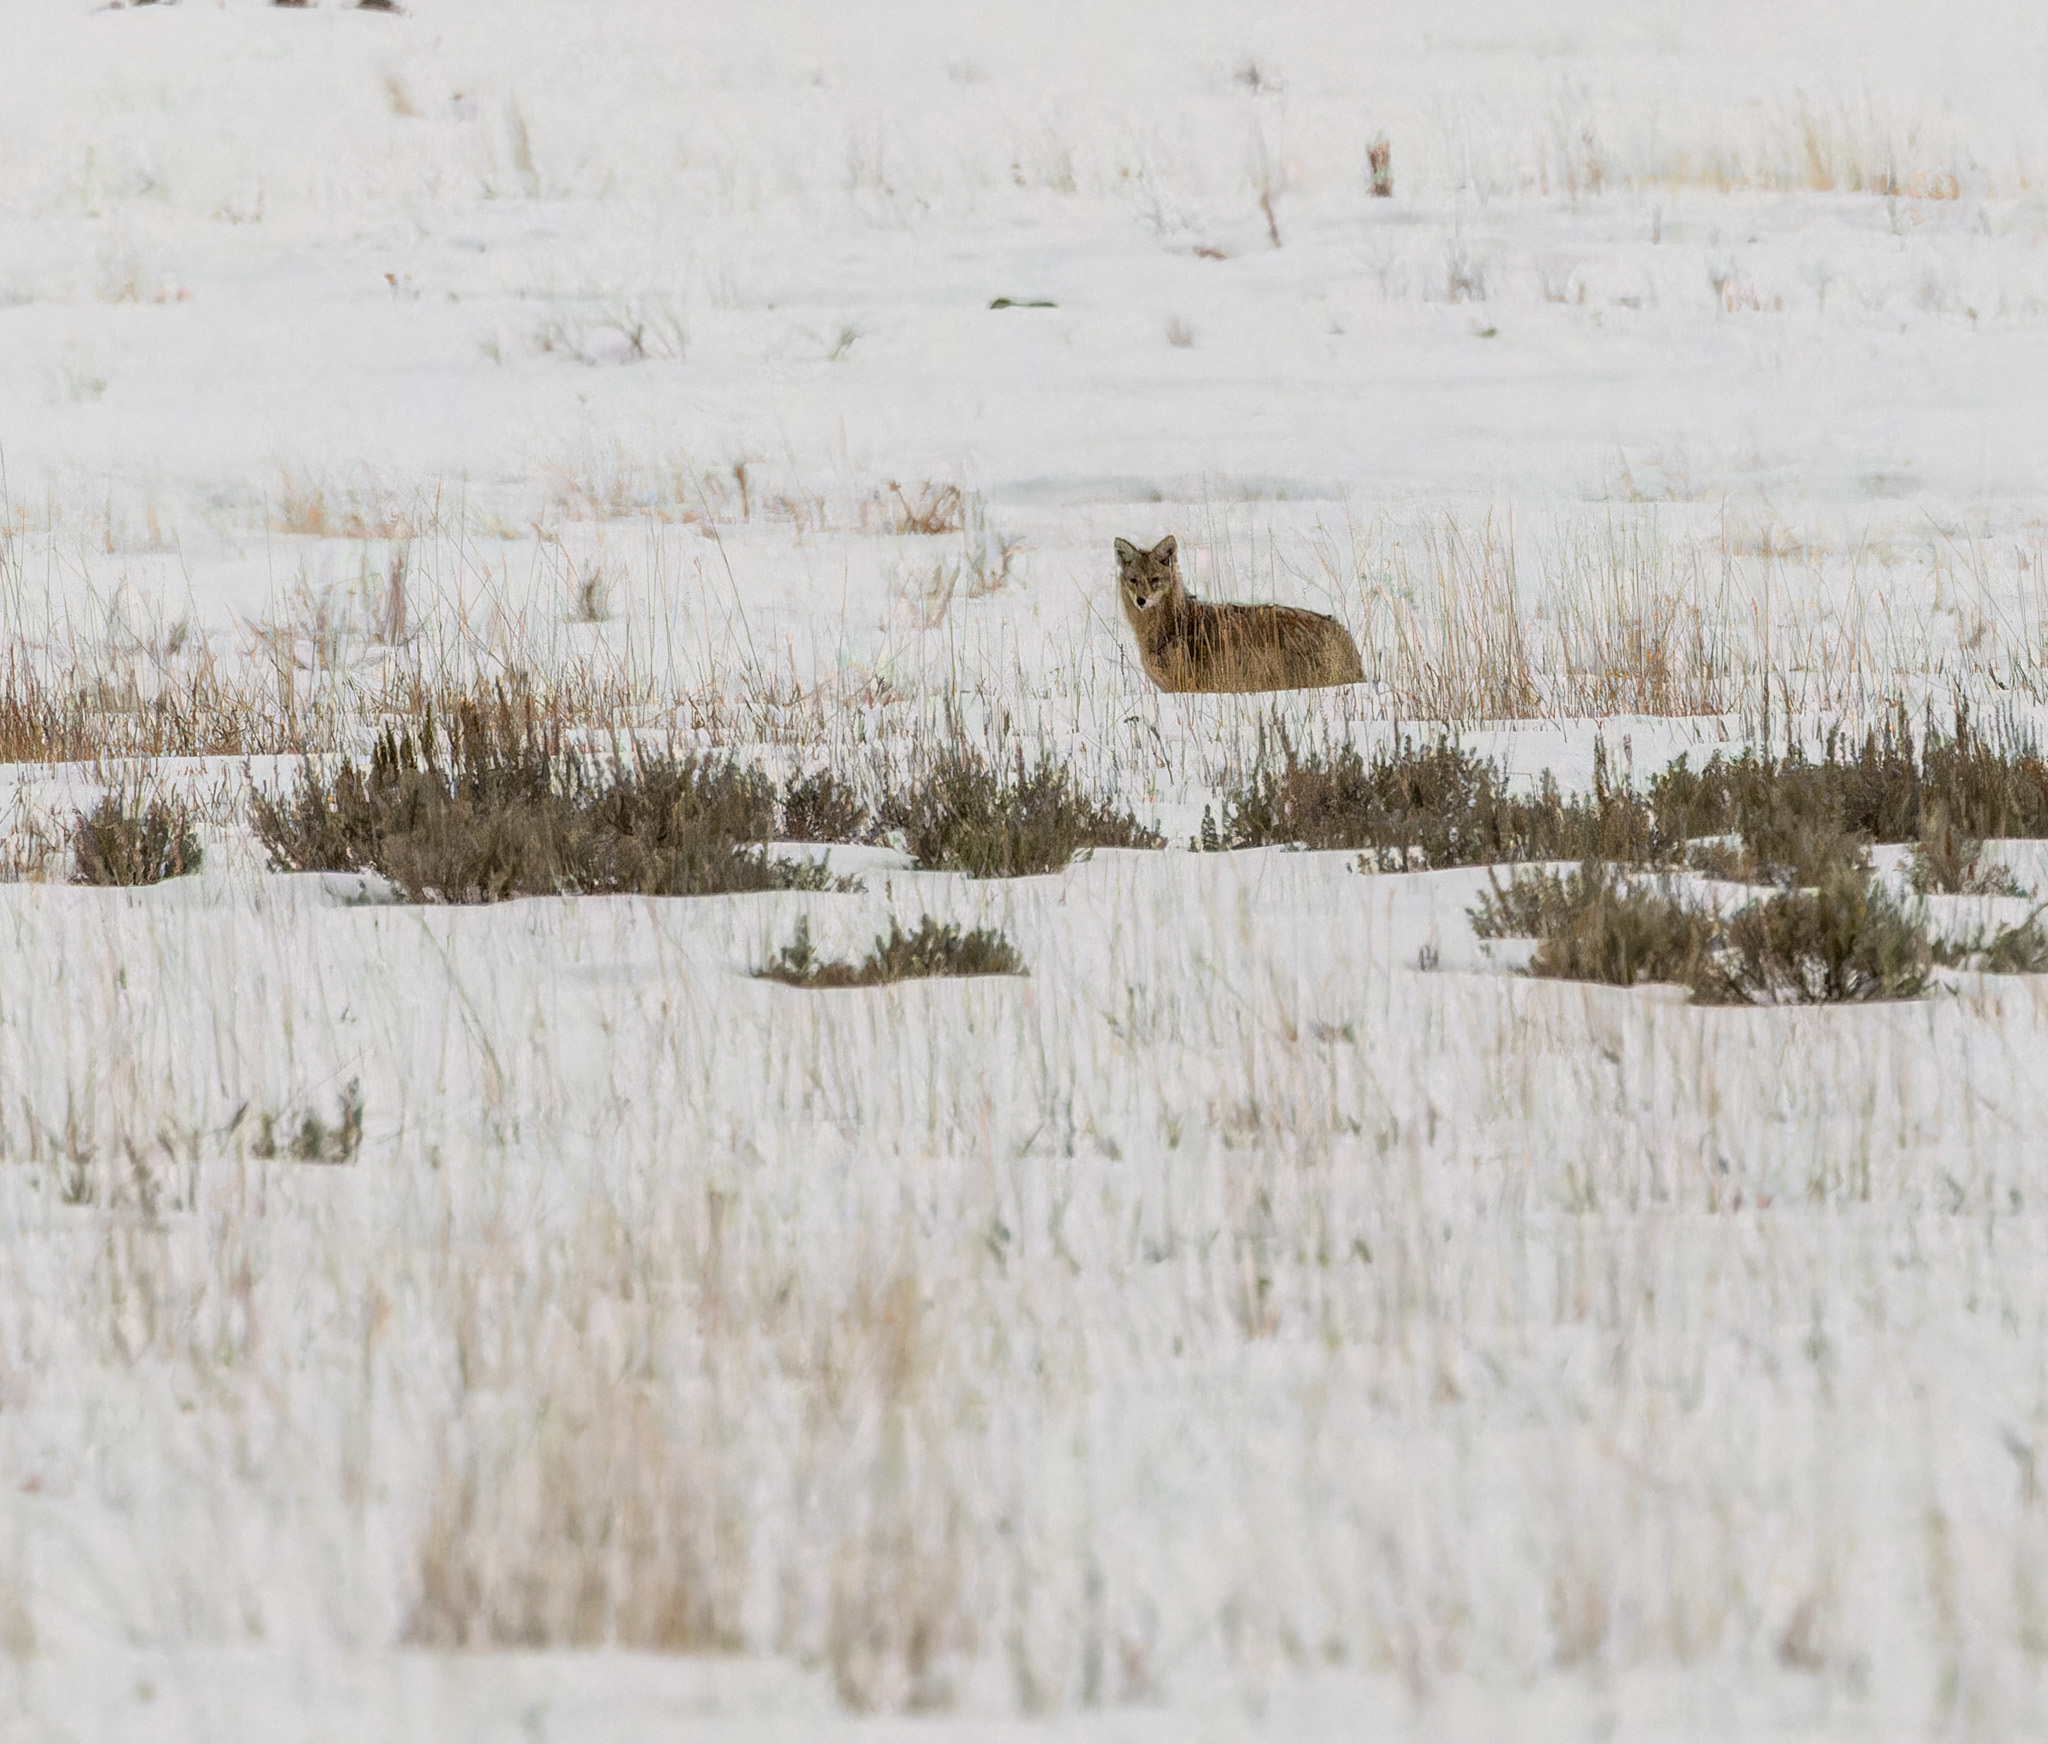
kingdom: Animalia
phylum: Chordata
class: Mammalia
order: Carnivora
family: Canidae
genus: Canis
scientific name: Canis latrans
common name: Coyote
